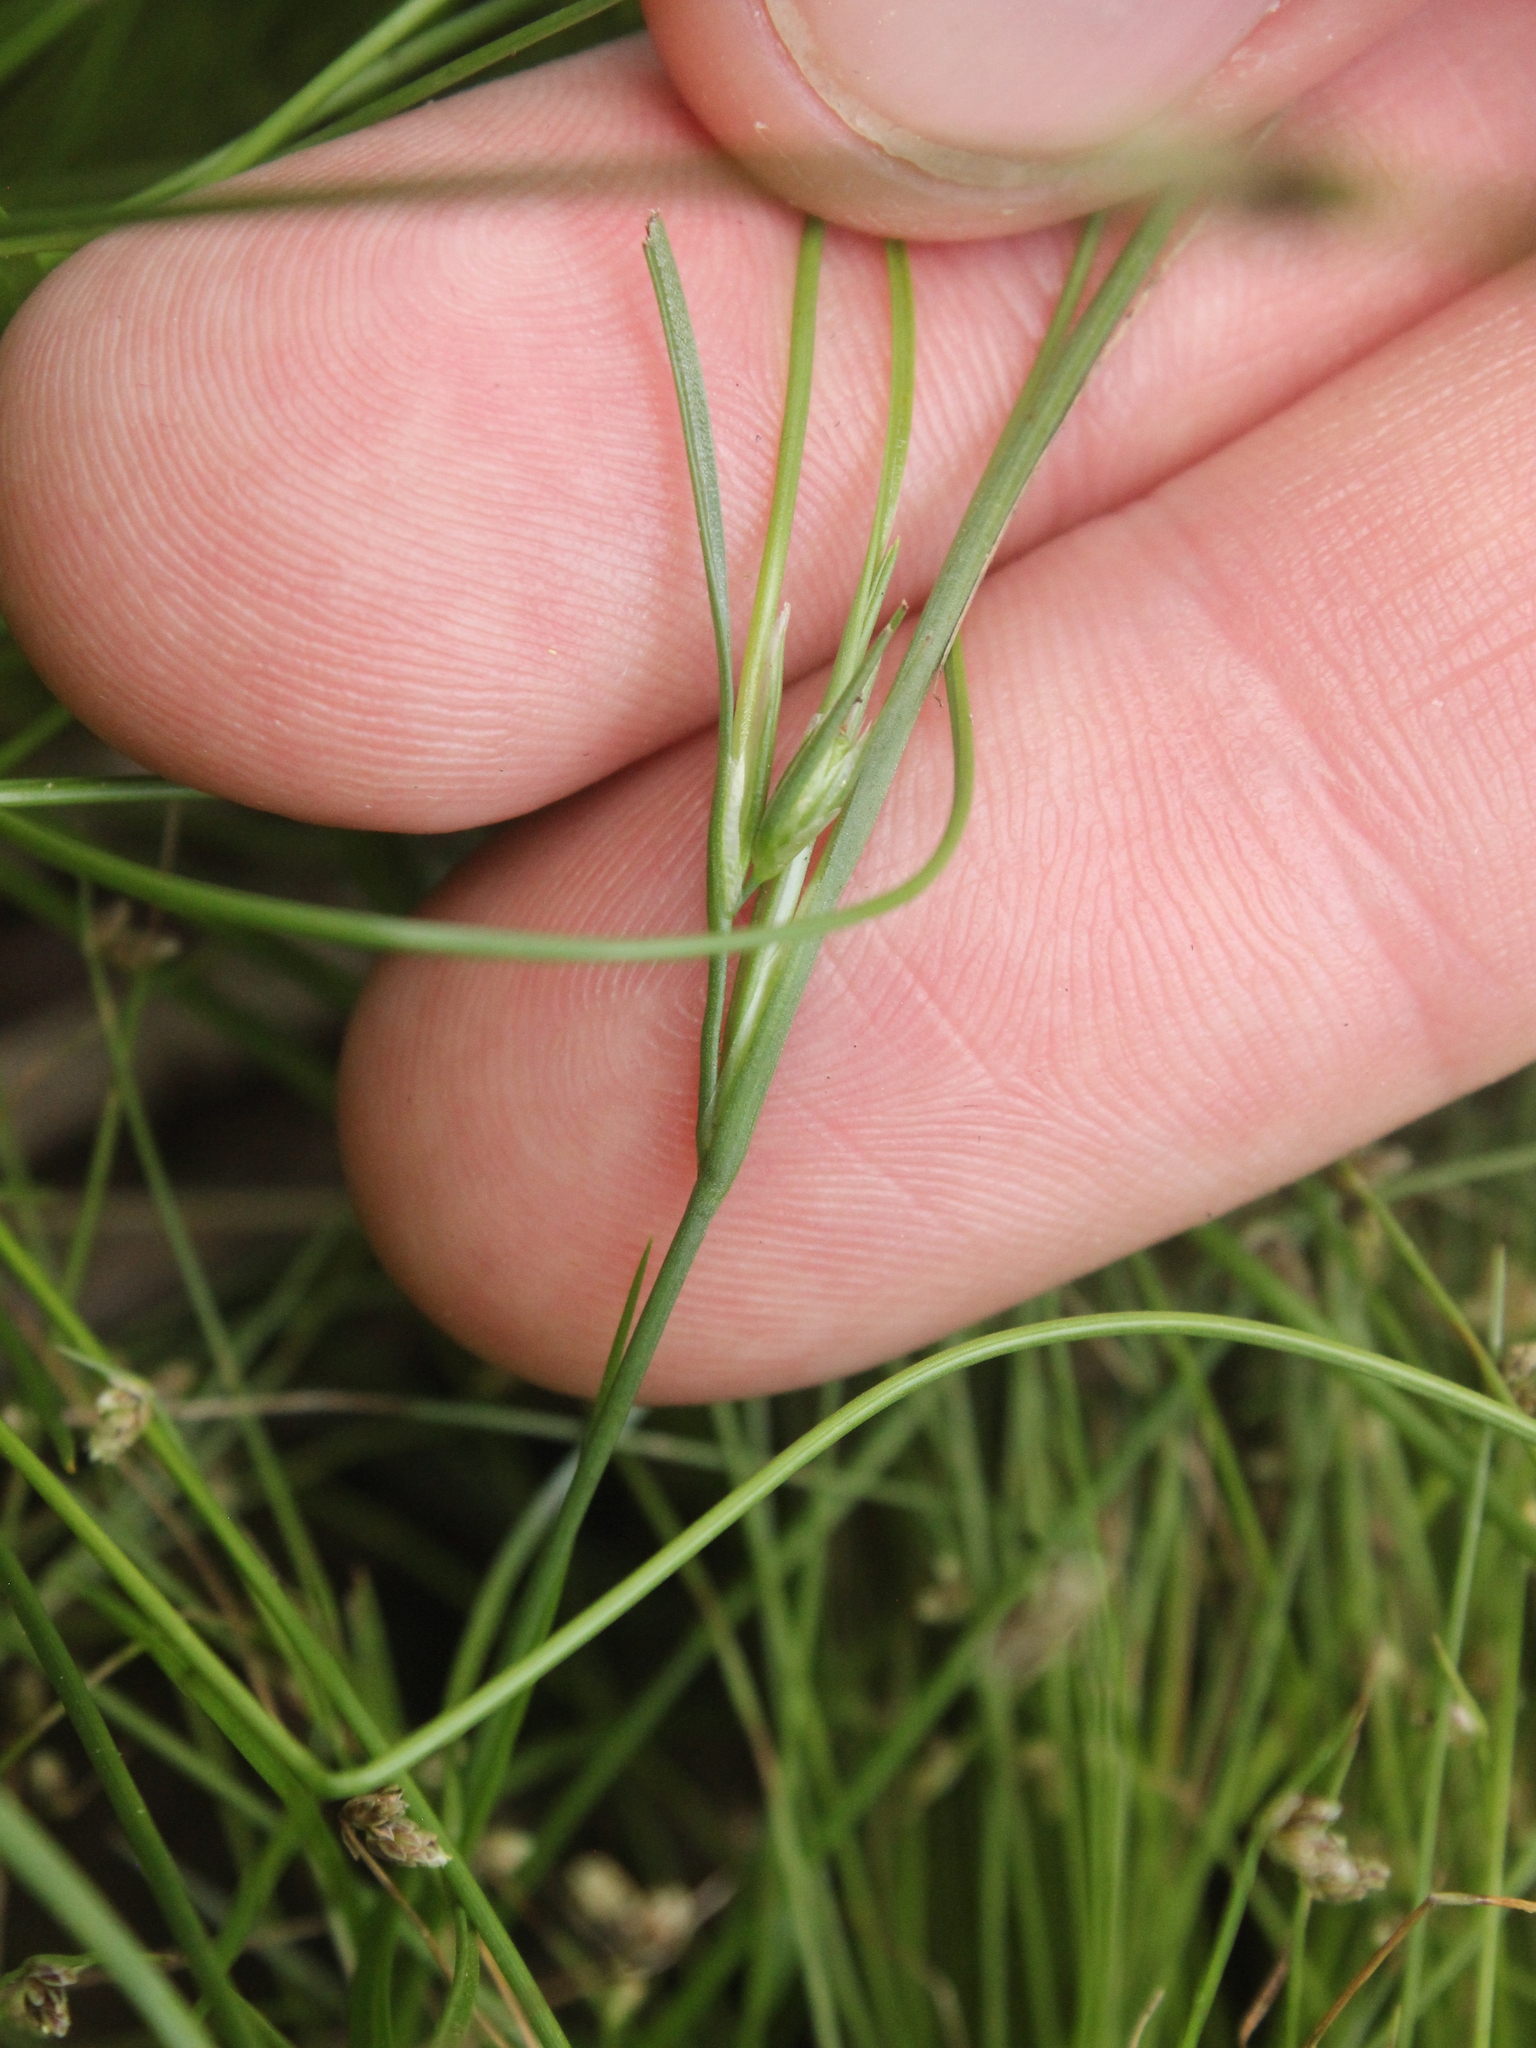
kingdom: Plantae
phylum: Tracheophyta
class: Liliopsida
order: Poales
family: Juncaceae
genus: Juncus
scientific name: Juncus bufonius
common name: Toad rush
